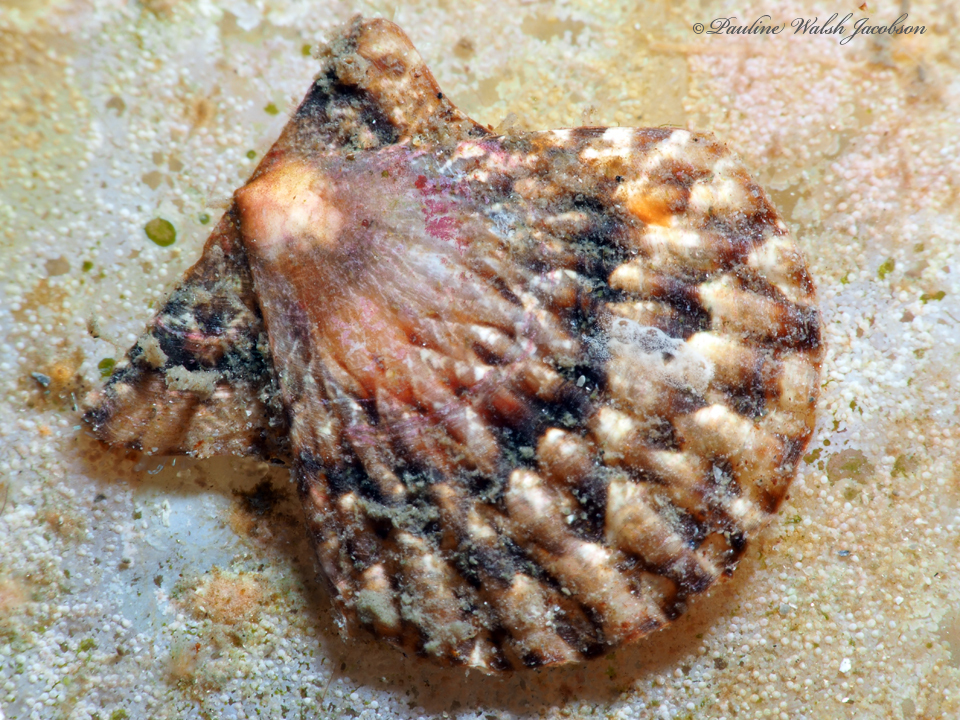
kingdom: Animalia
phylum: Mollusca
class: Bivalvia
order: Pectinida
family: Pectinidae
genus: Antillipecten
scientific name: Antillipecten antillarum
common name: Antillean scallop
